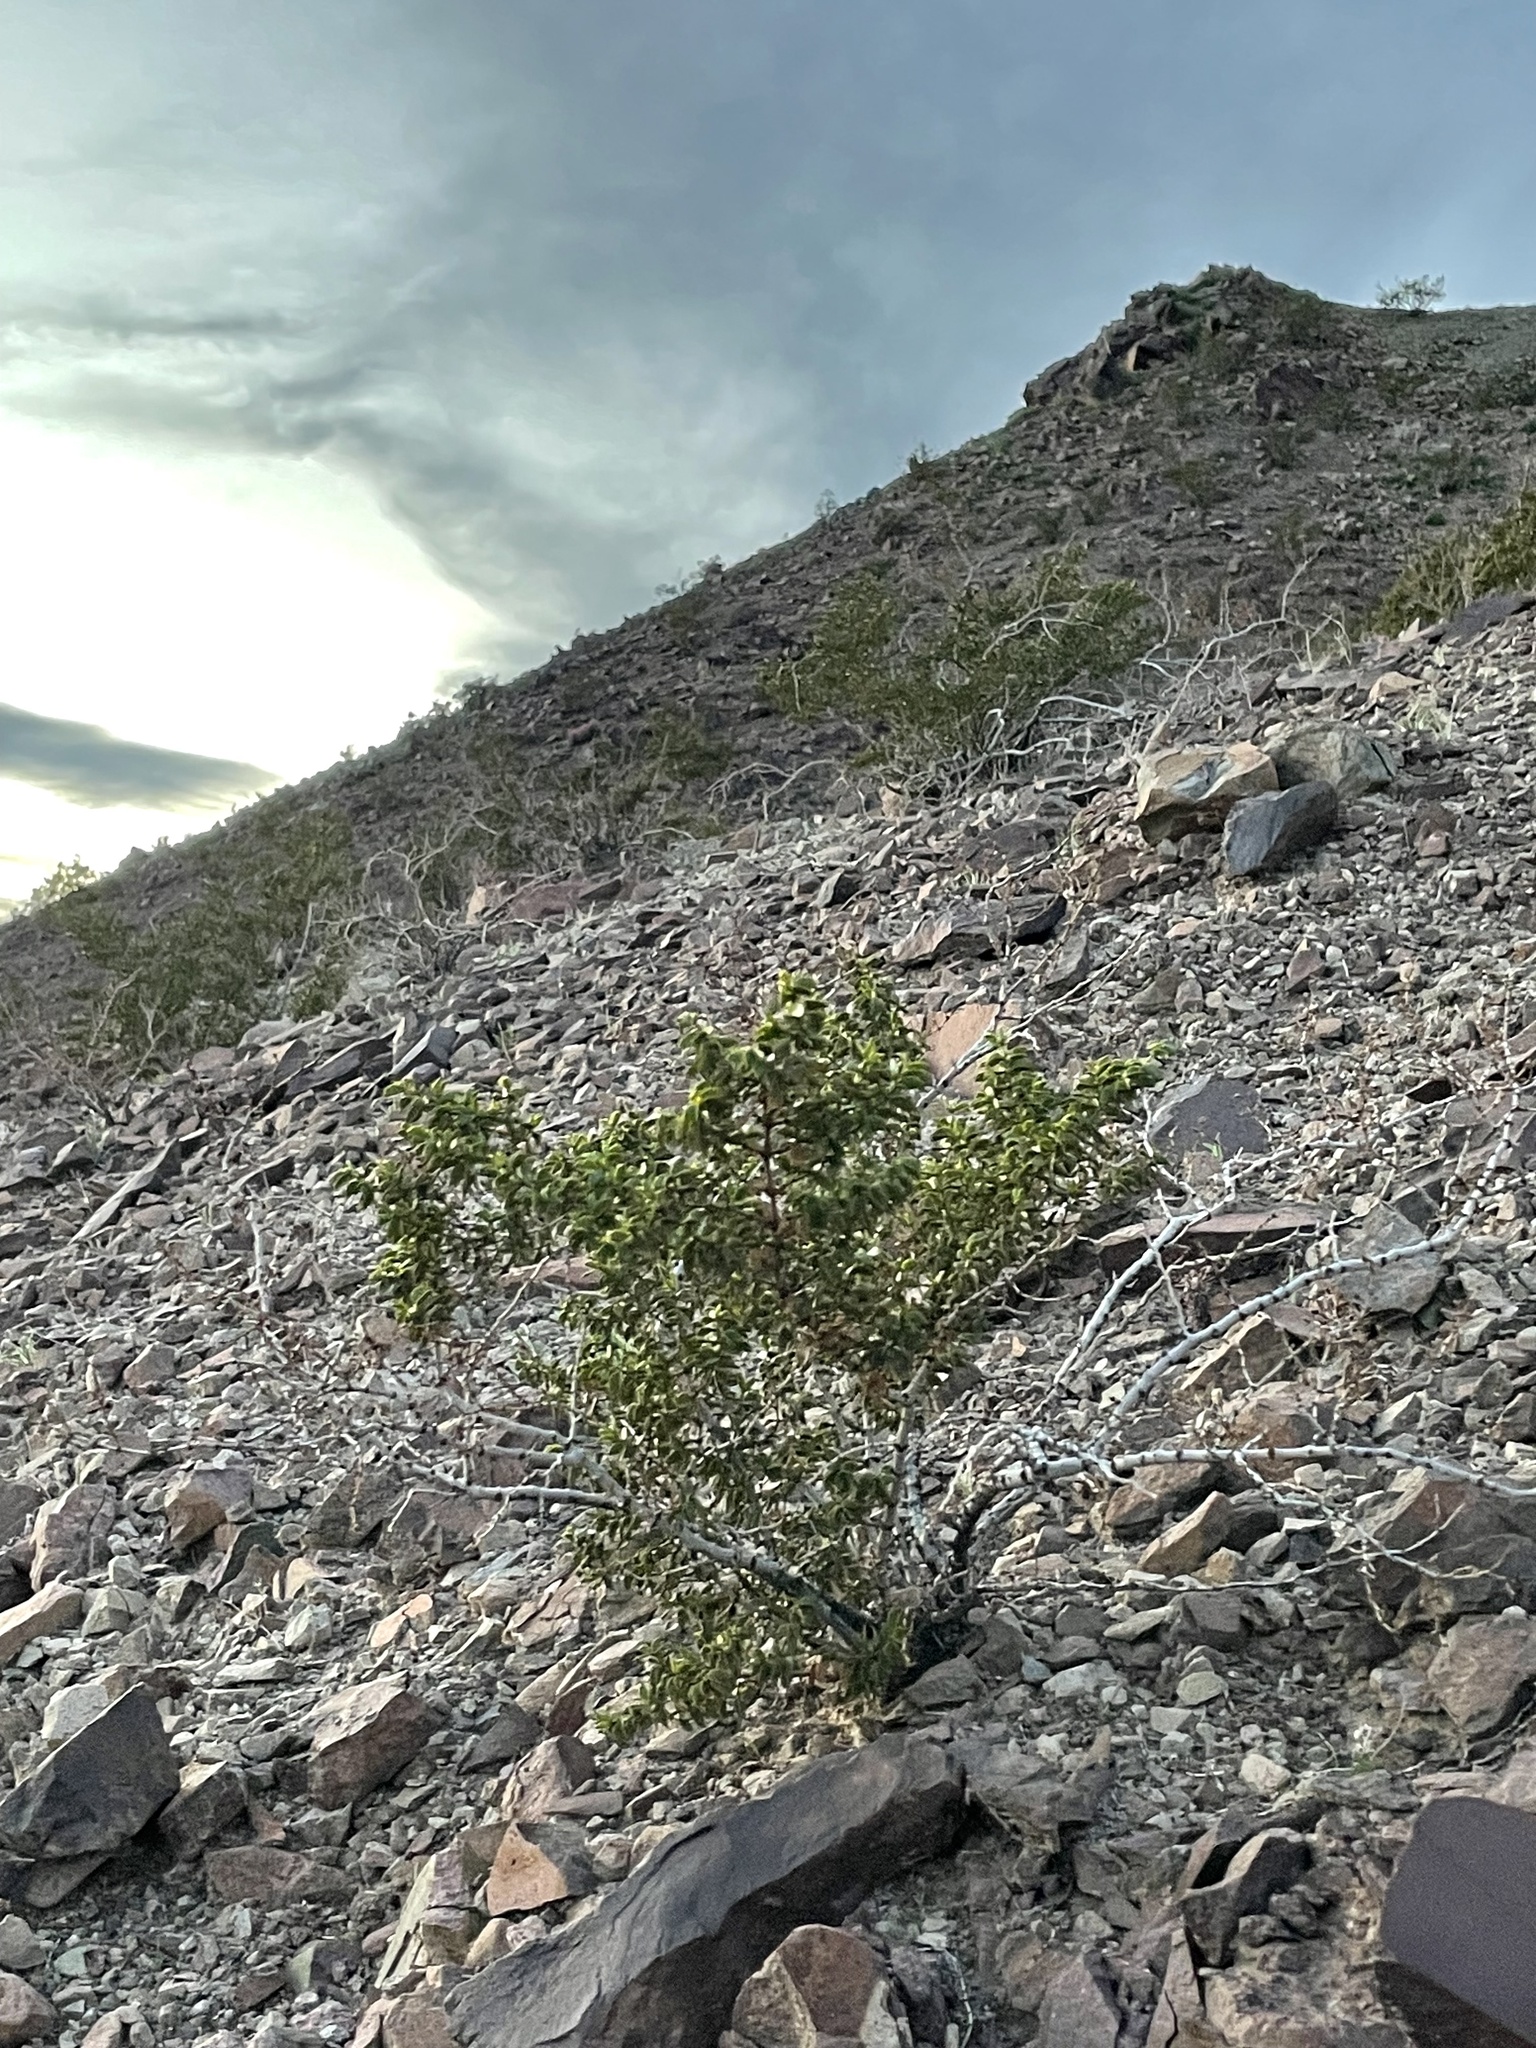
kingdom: Plantae
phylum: Tracheophyta
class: Magnoliopsida
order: Zygophyllales
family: Zygophyllaceae
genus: Larrea
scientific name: Larrea tridentata
